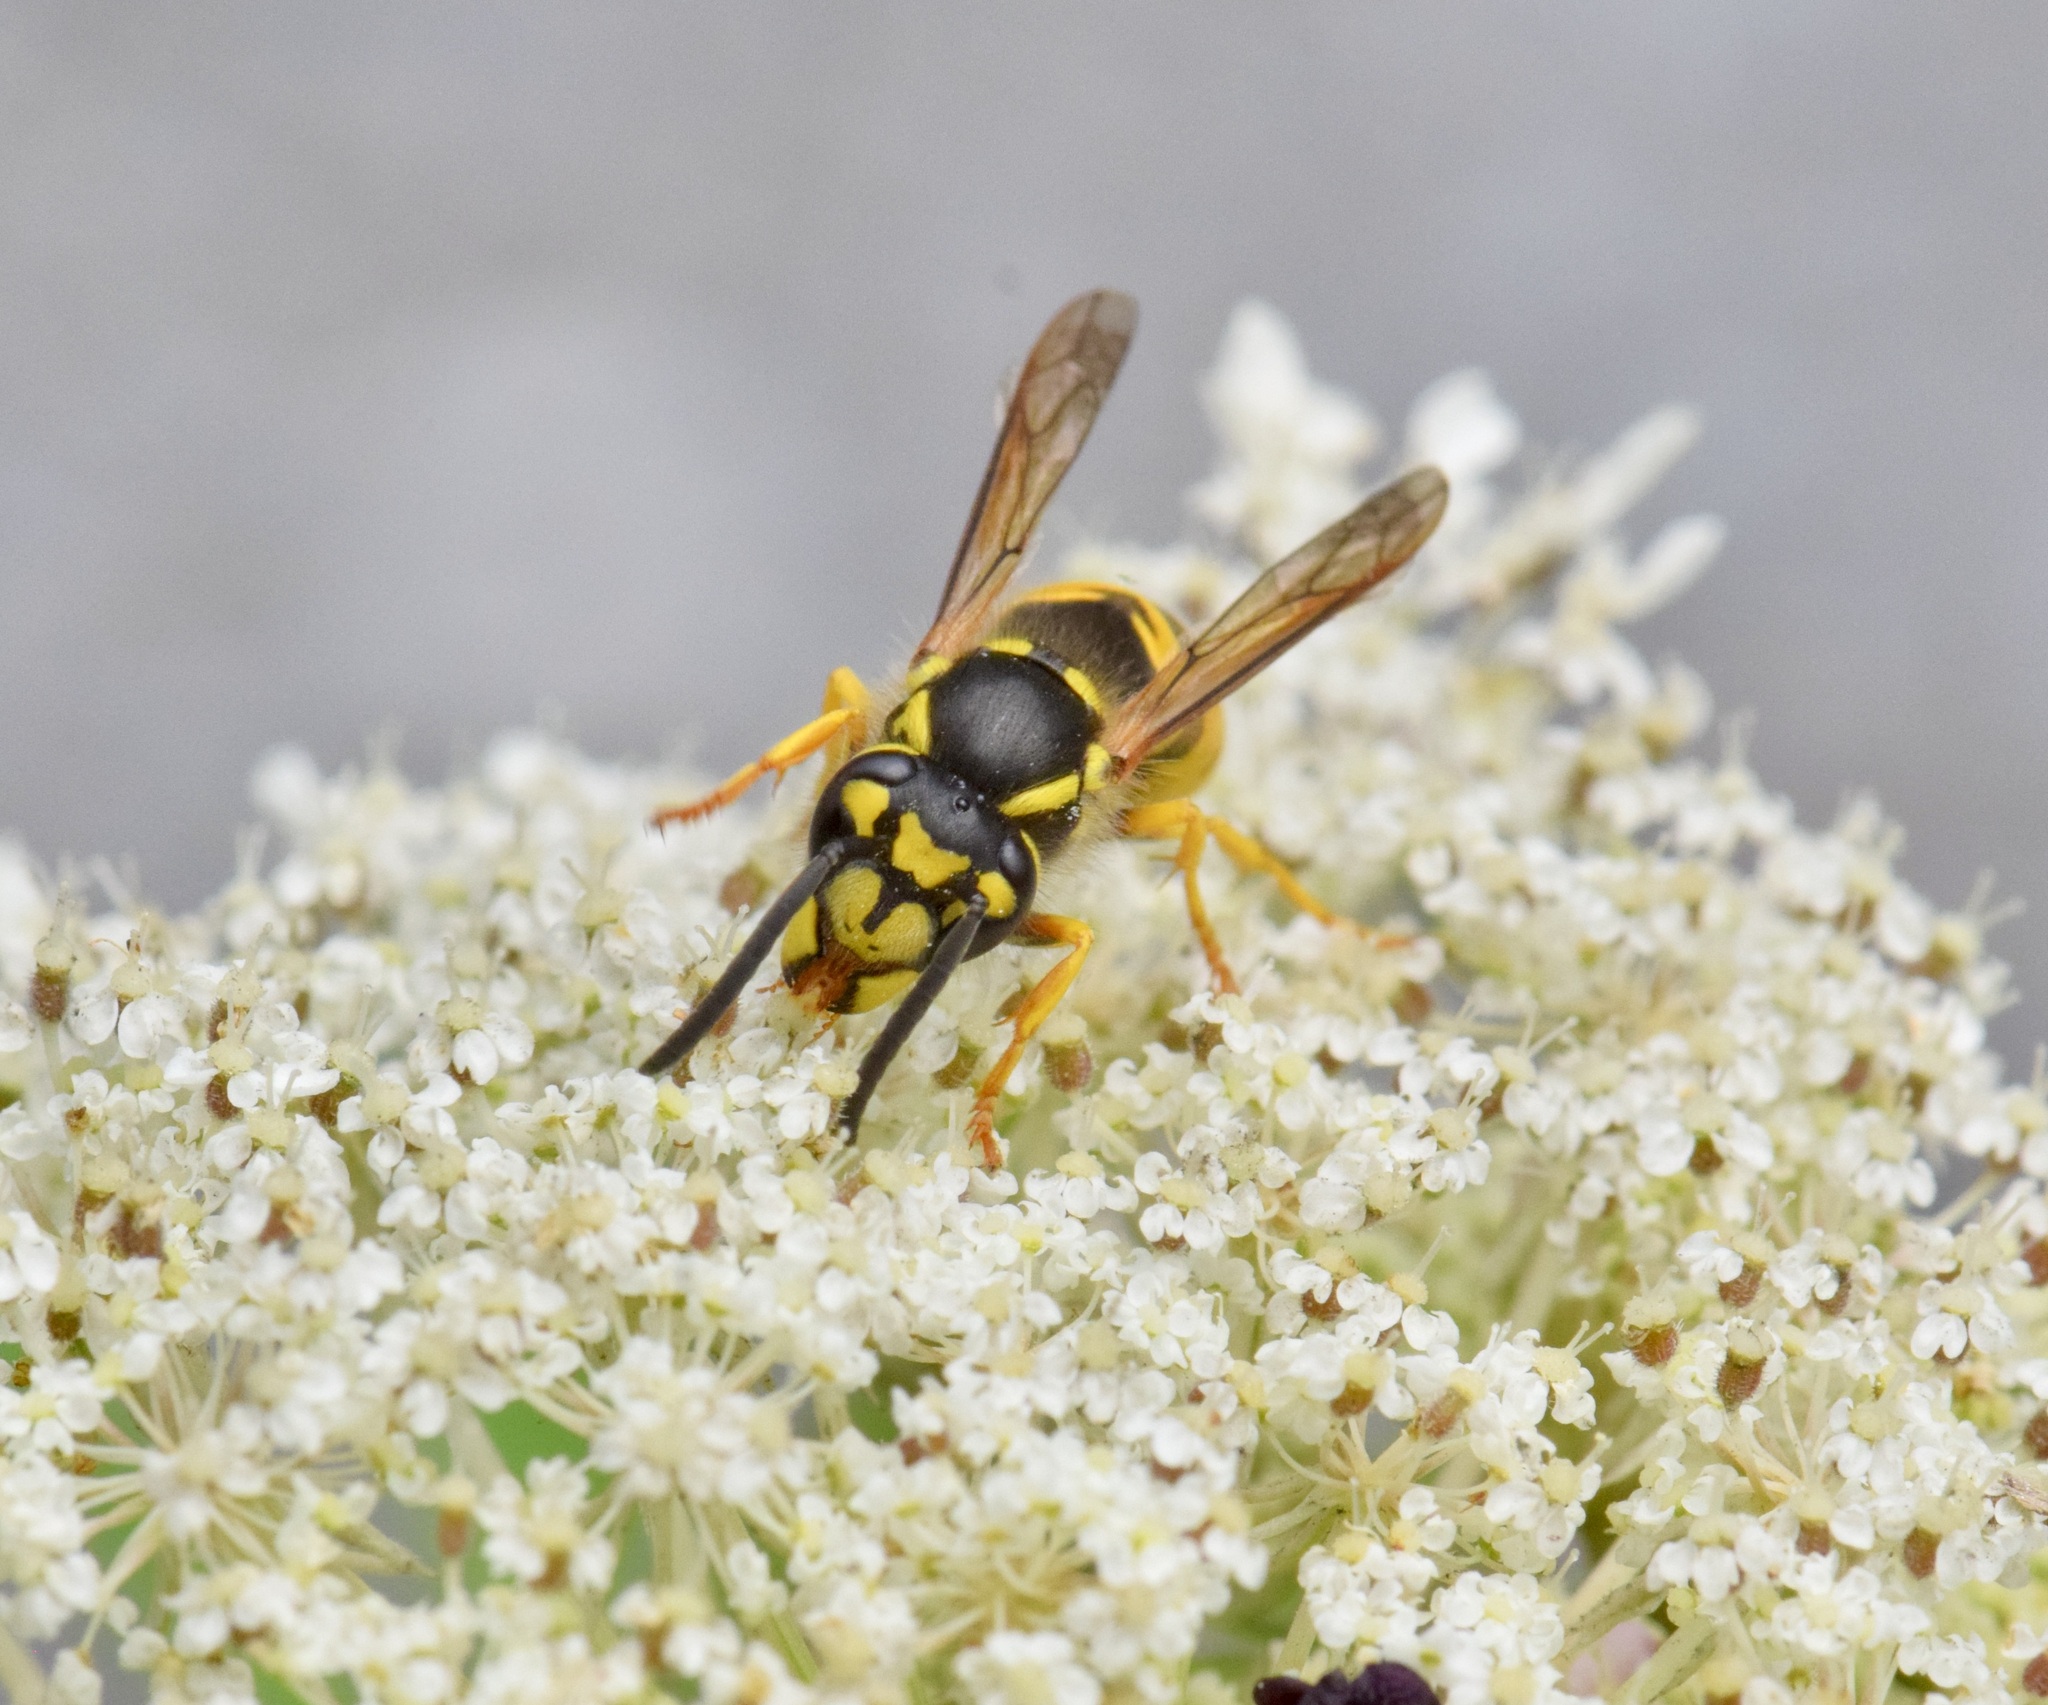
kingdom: Animalia
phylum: Arthropoda
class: Insecta
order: Hymenoptera
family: Vespidae
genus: Vespula
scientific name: Vespula germanica
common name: German wasp
